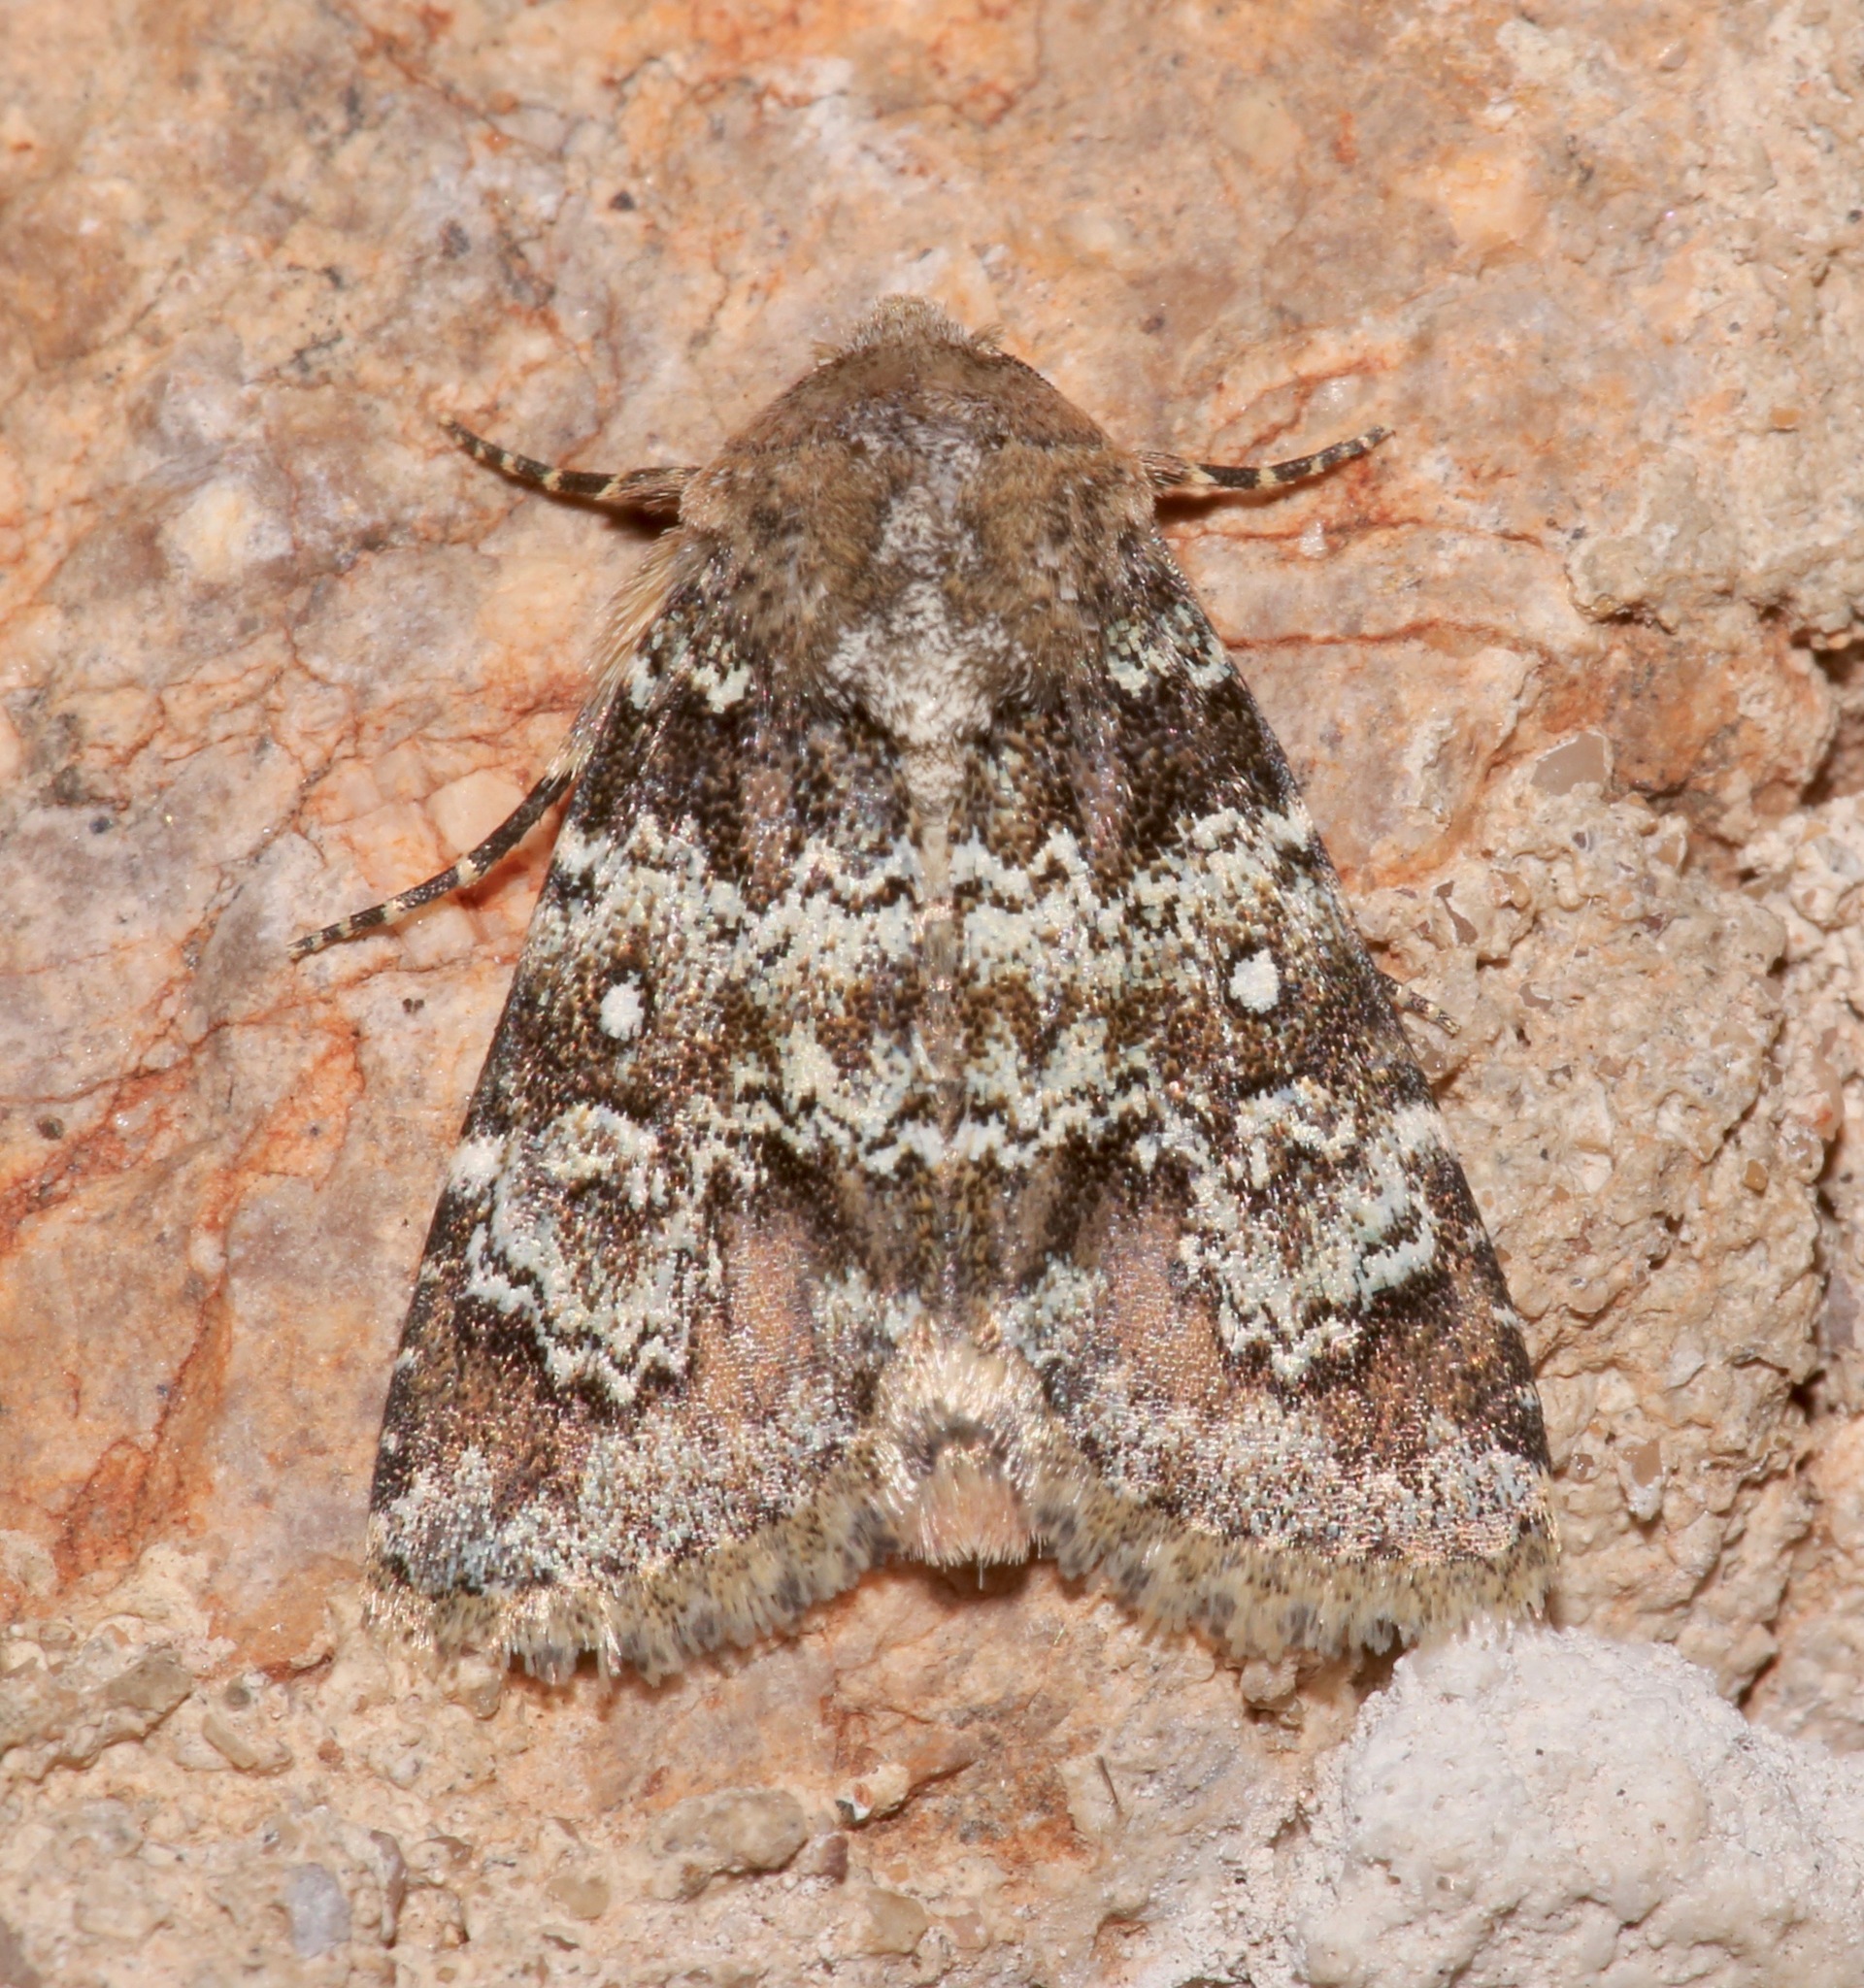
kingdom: Animalia
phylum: Arthropoda
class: Insecta
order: Lepidoptera
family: Noctuidae
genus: Hemibryomima
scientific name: Hemibryomima chryselectra
